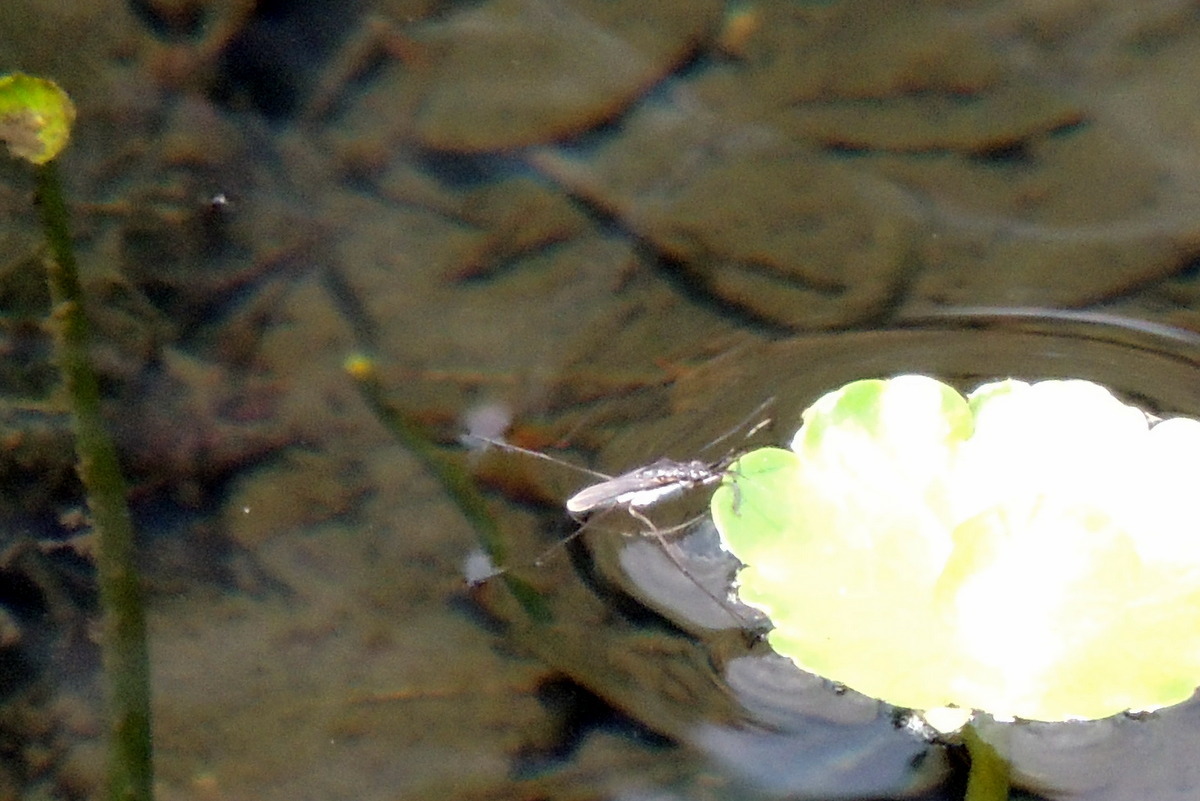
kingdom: Animalia
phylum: Arthropoda
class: Insecta
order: Hemiptera
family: Gerridae
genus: Neogerris
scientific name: Neogerris hesione
